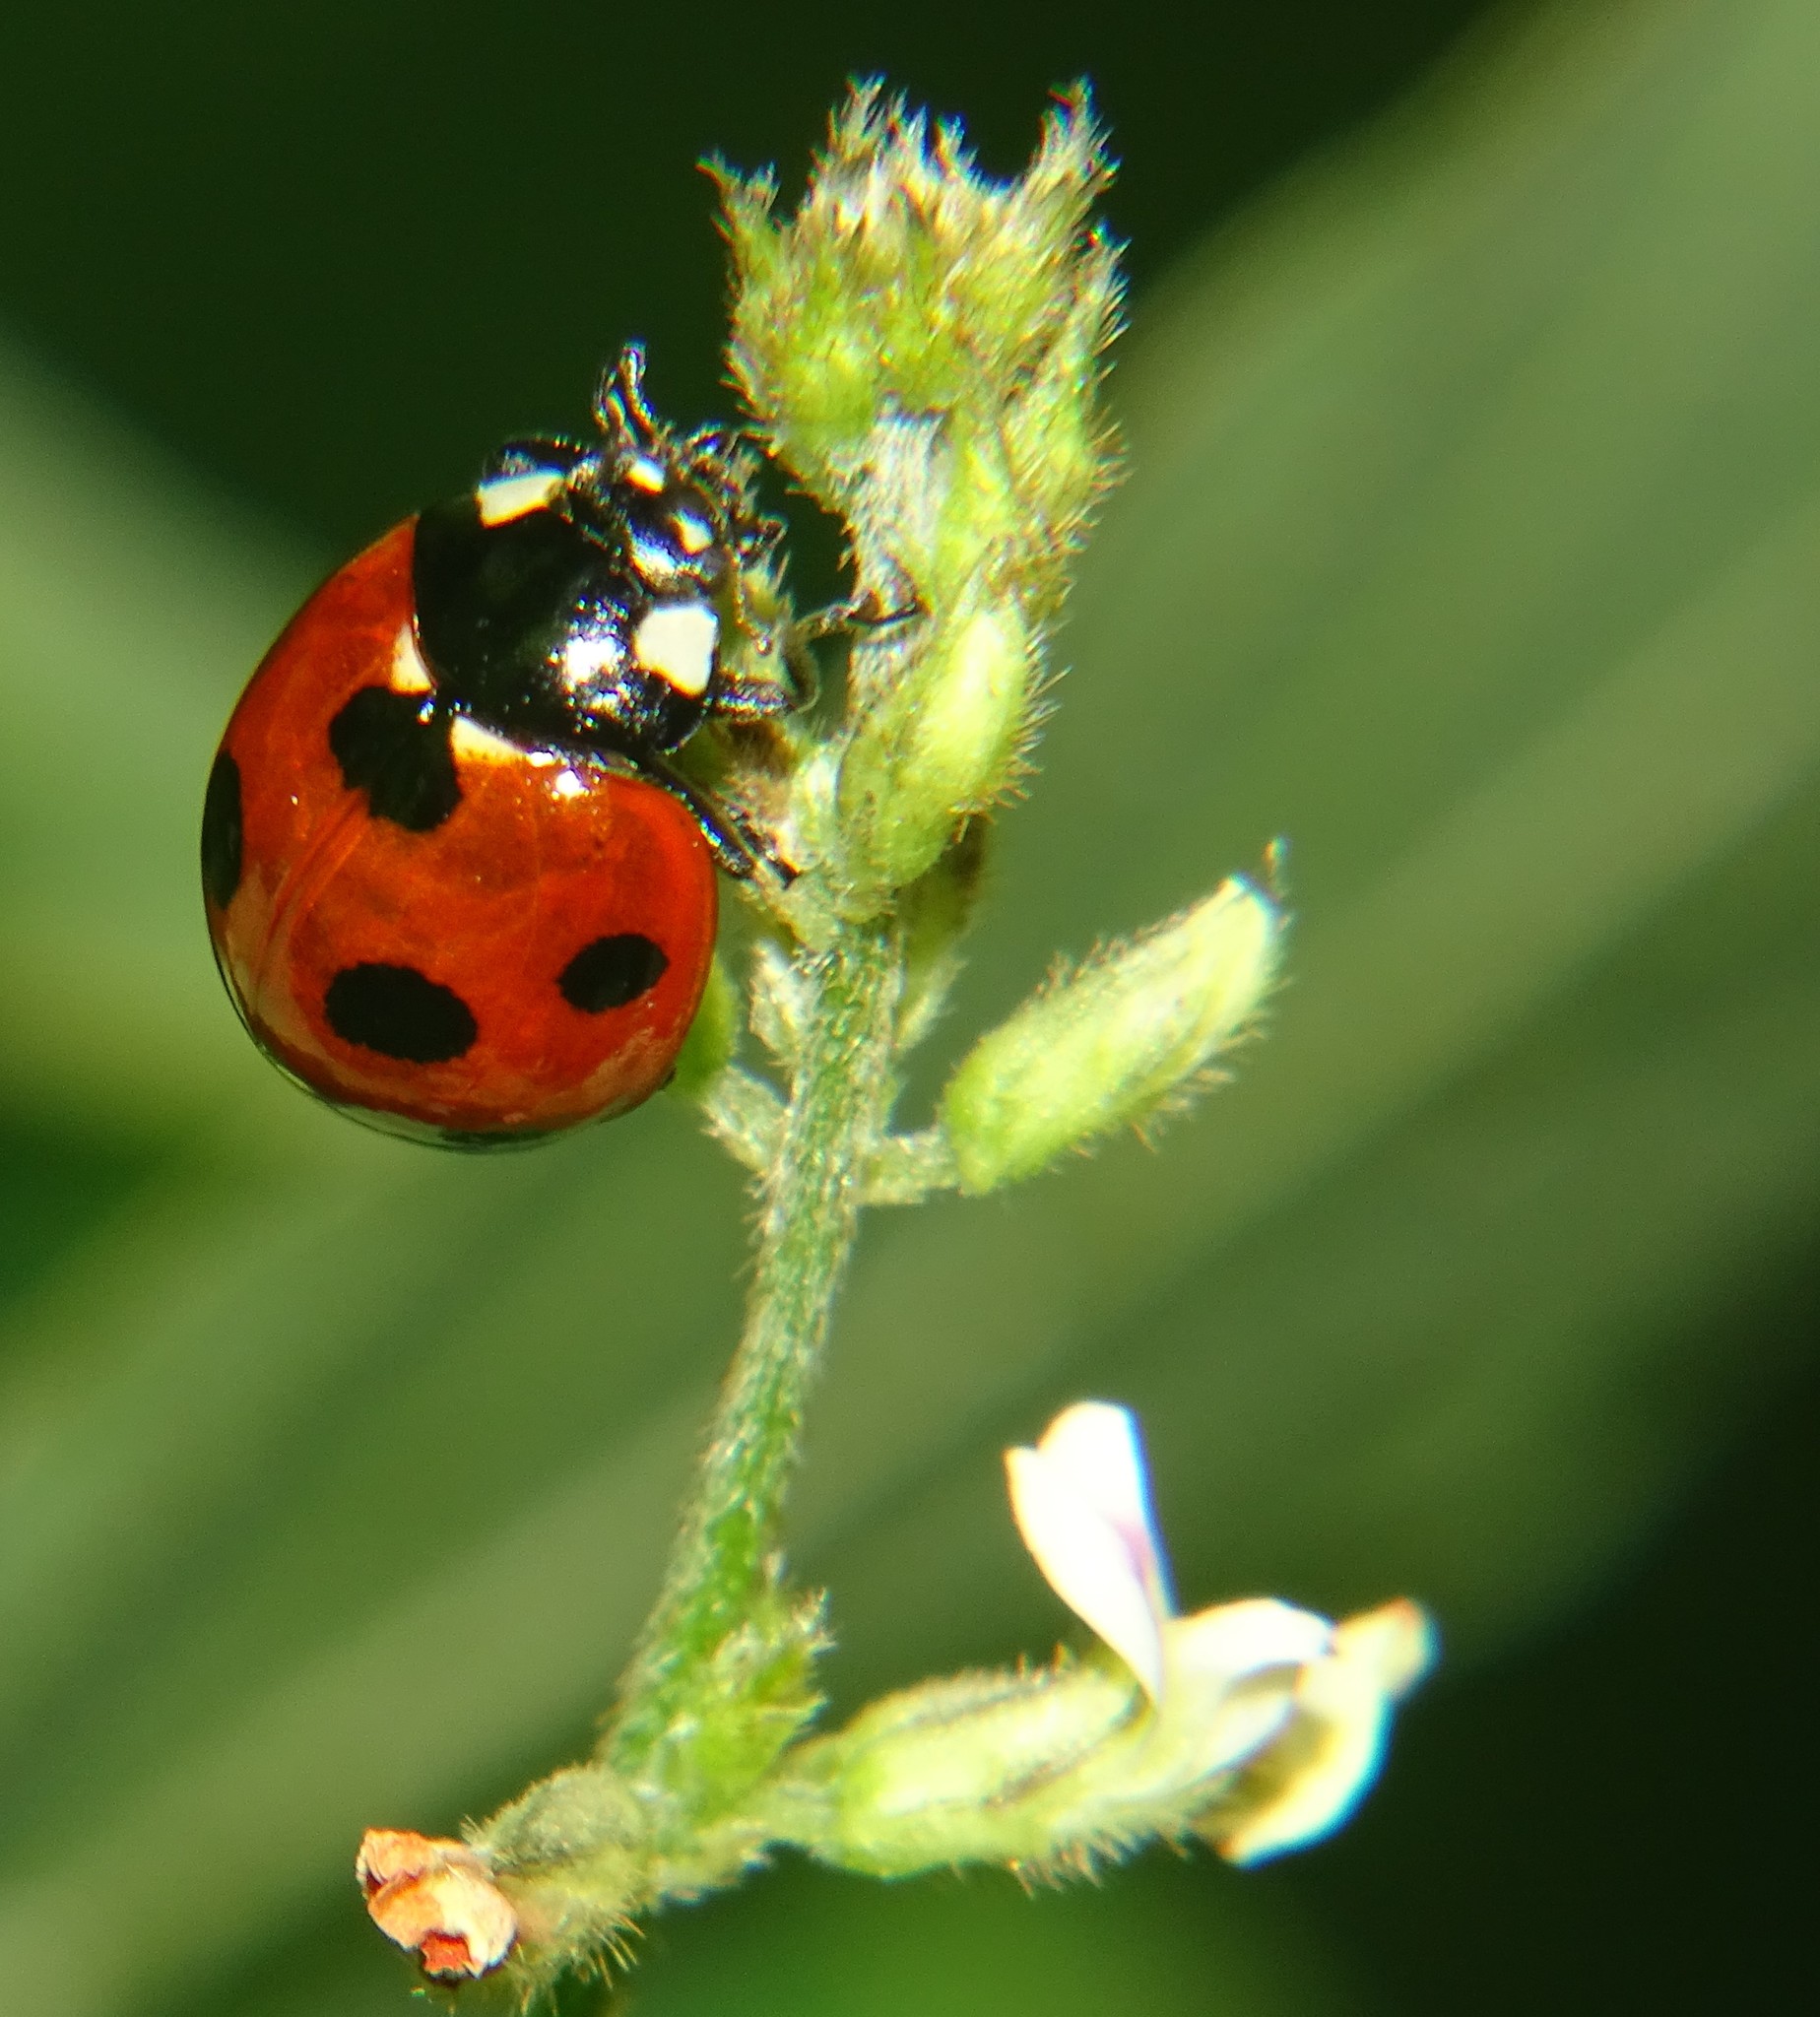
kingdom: Animalia
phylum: Arthropoda
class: Insecta
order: Coleoptera
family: Coccinellidae
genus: Coccinella
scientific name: Coccinella septempunctata
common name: Sevenspotted lady beetle
